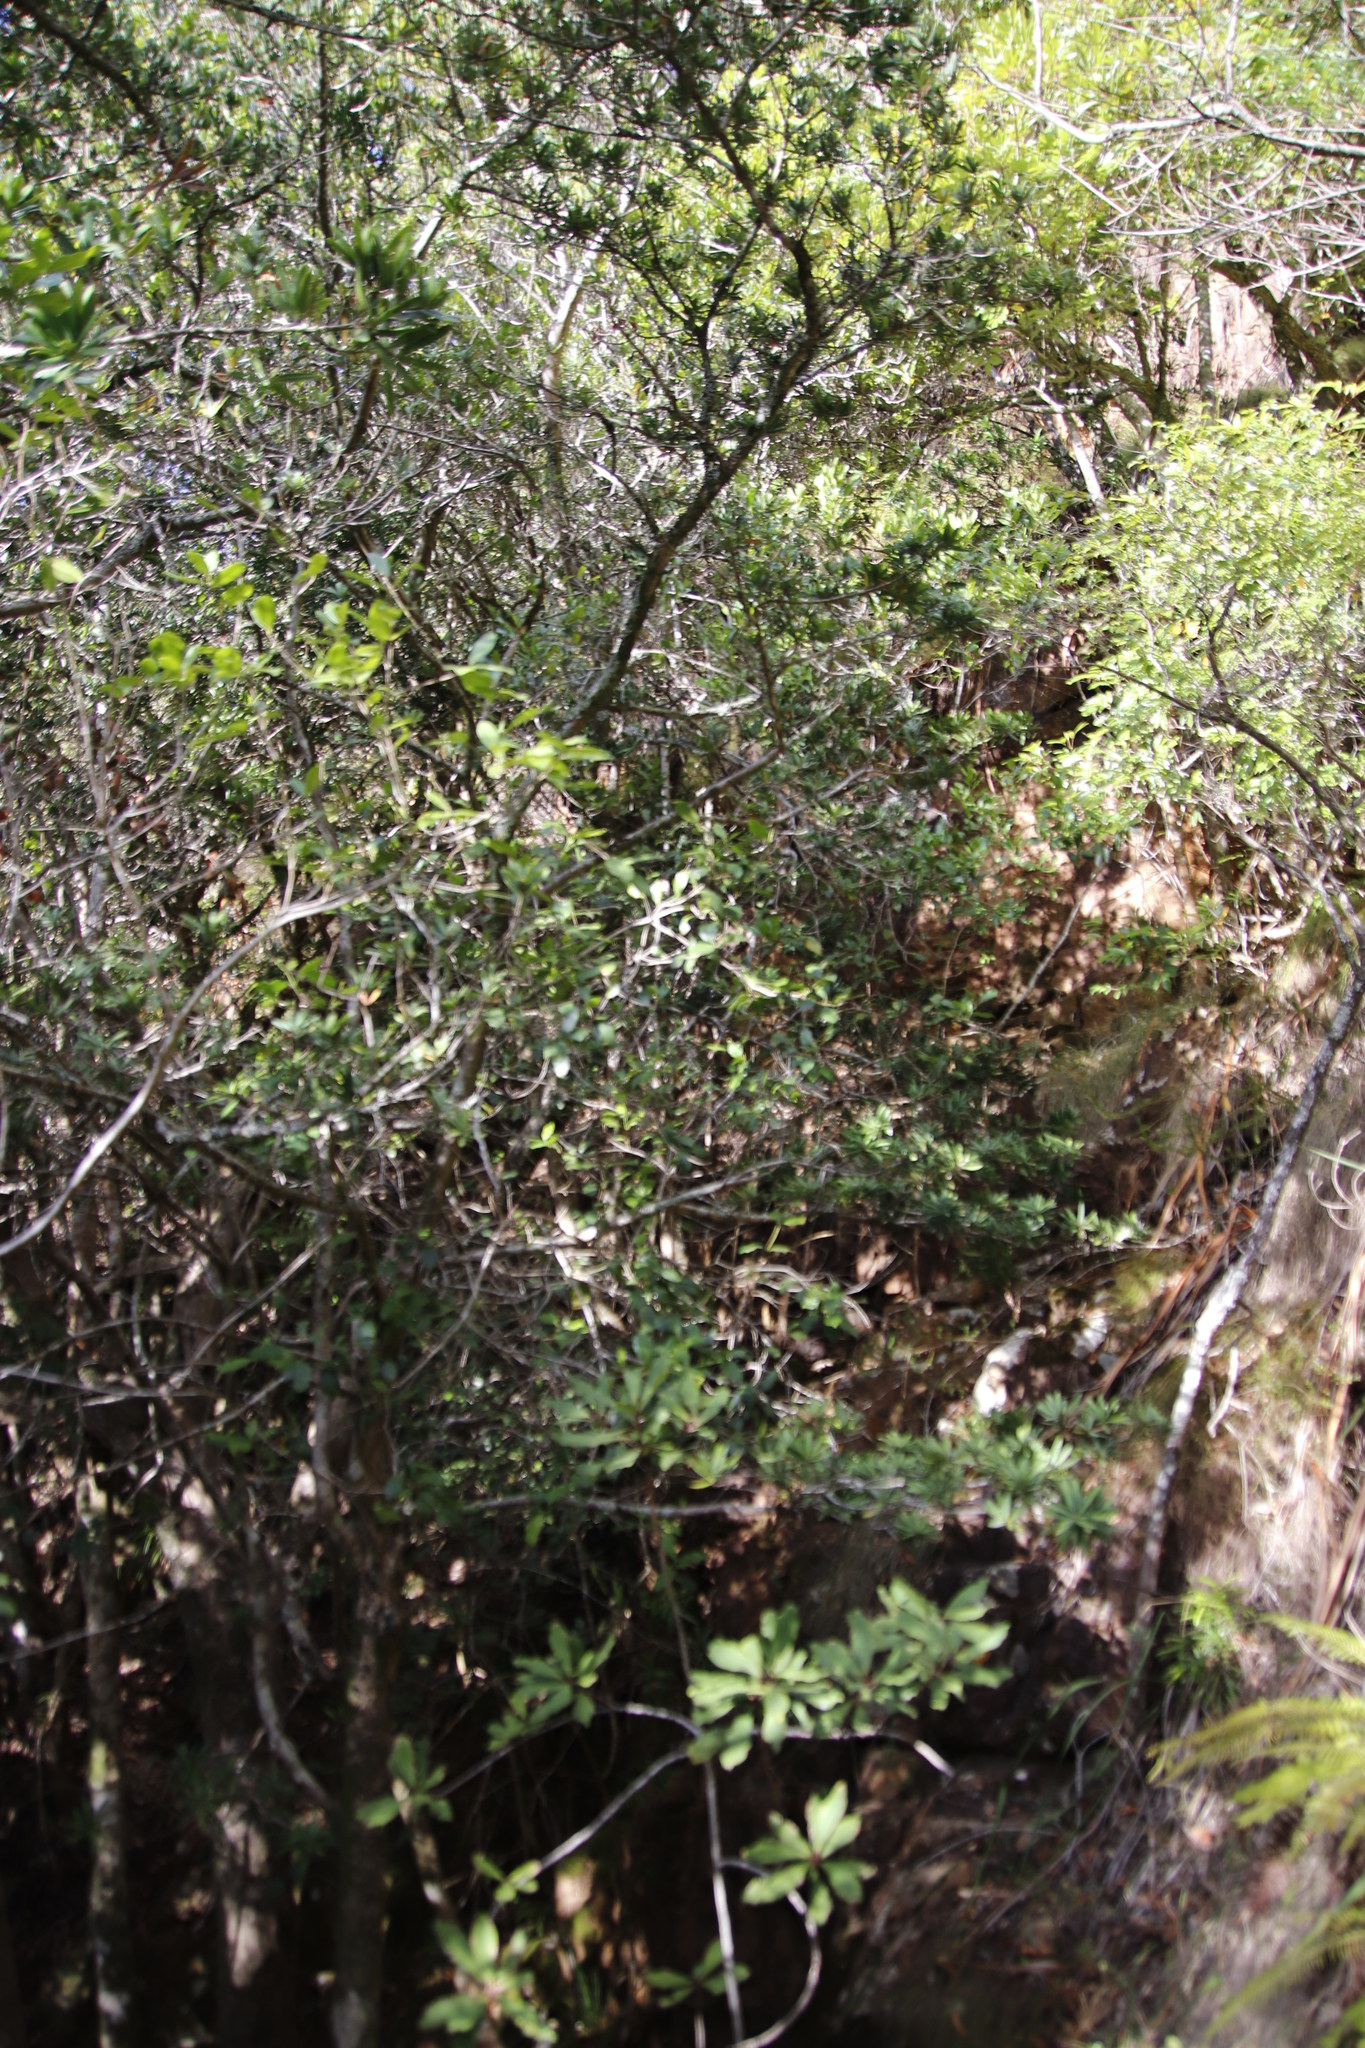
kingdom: Plantae
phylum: Tracheophyta
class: Pinopsida
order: Pinales
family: Podocarpaceae
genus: Podocarpus
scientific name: Podocarpus latifolius
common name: True yellowwood
